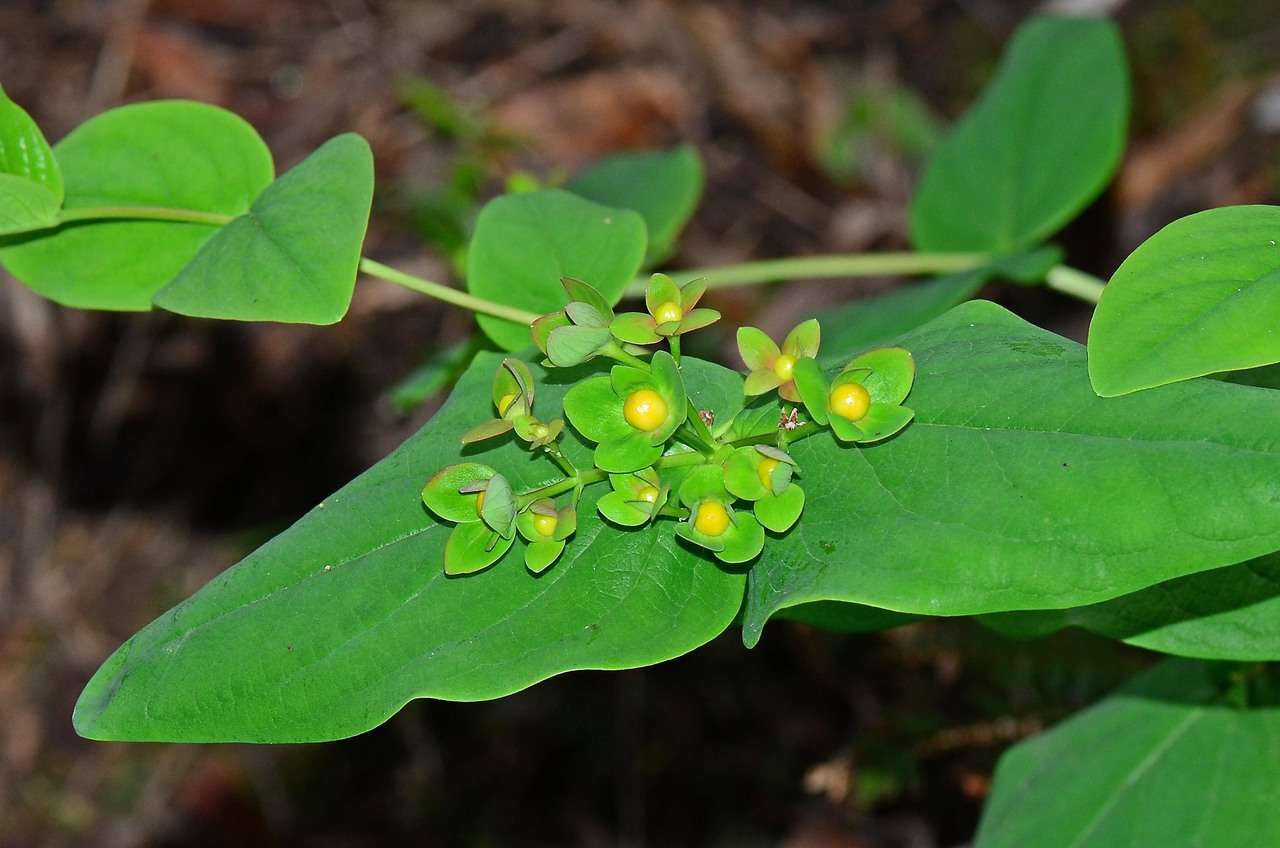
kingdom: Plantae
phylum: Tracheophyta
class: Magnoliopsida
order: Malpighiales
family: Hypericaceae
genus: Hypericum
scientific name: Hypericum androsaemum
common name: Sweet-amber
